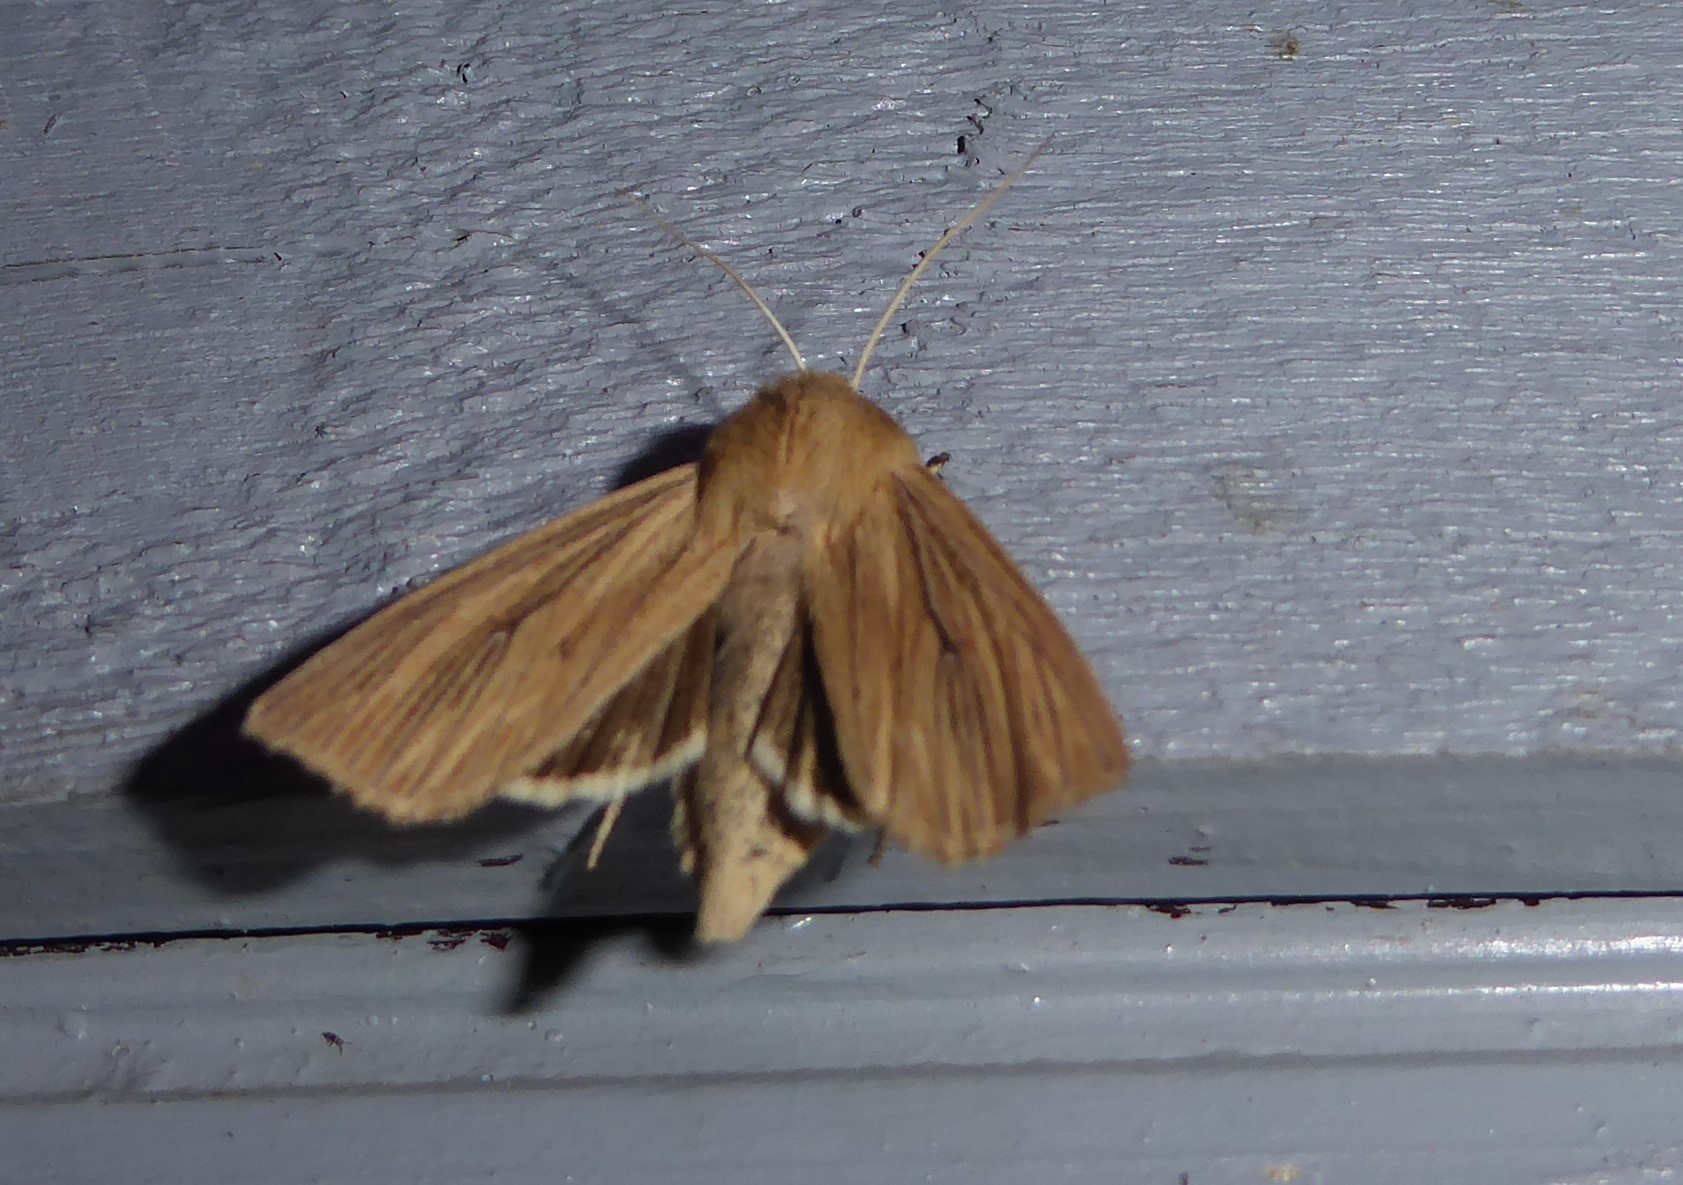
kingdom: Animalia
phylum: Arthropoda
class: Insecta
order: Lepidoptera
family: Noctuidae
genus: Ichneutica
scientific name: Ichneutica arotis
